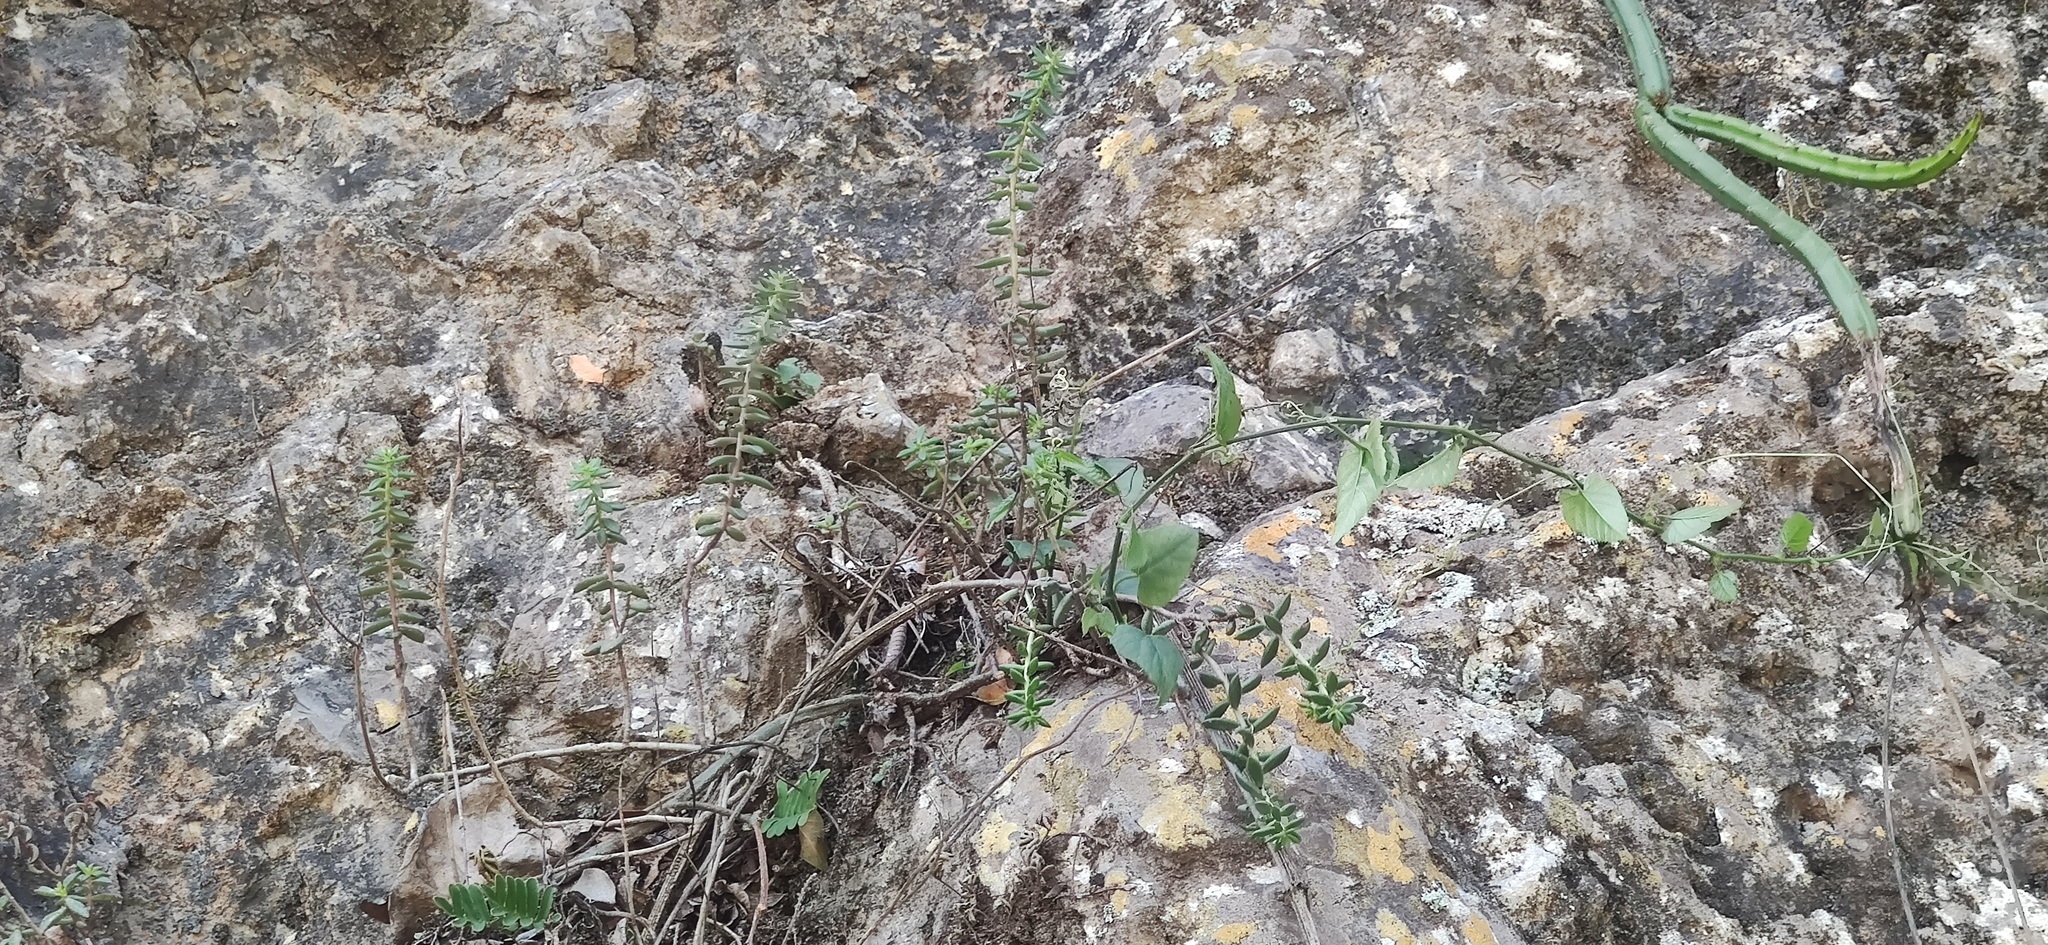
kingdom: Plantae
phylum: Tracheophyta
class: Magnoliopsida
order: Saxifragales
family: Crassulaceae
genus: Sedum
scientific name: Sedum calcicola
